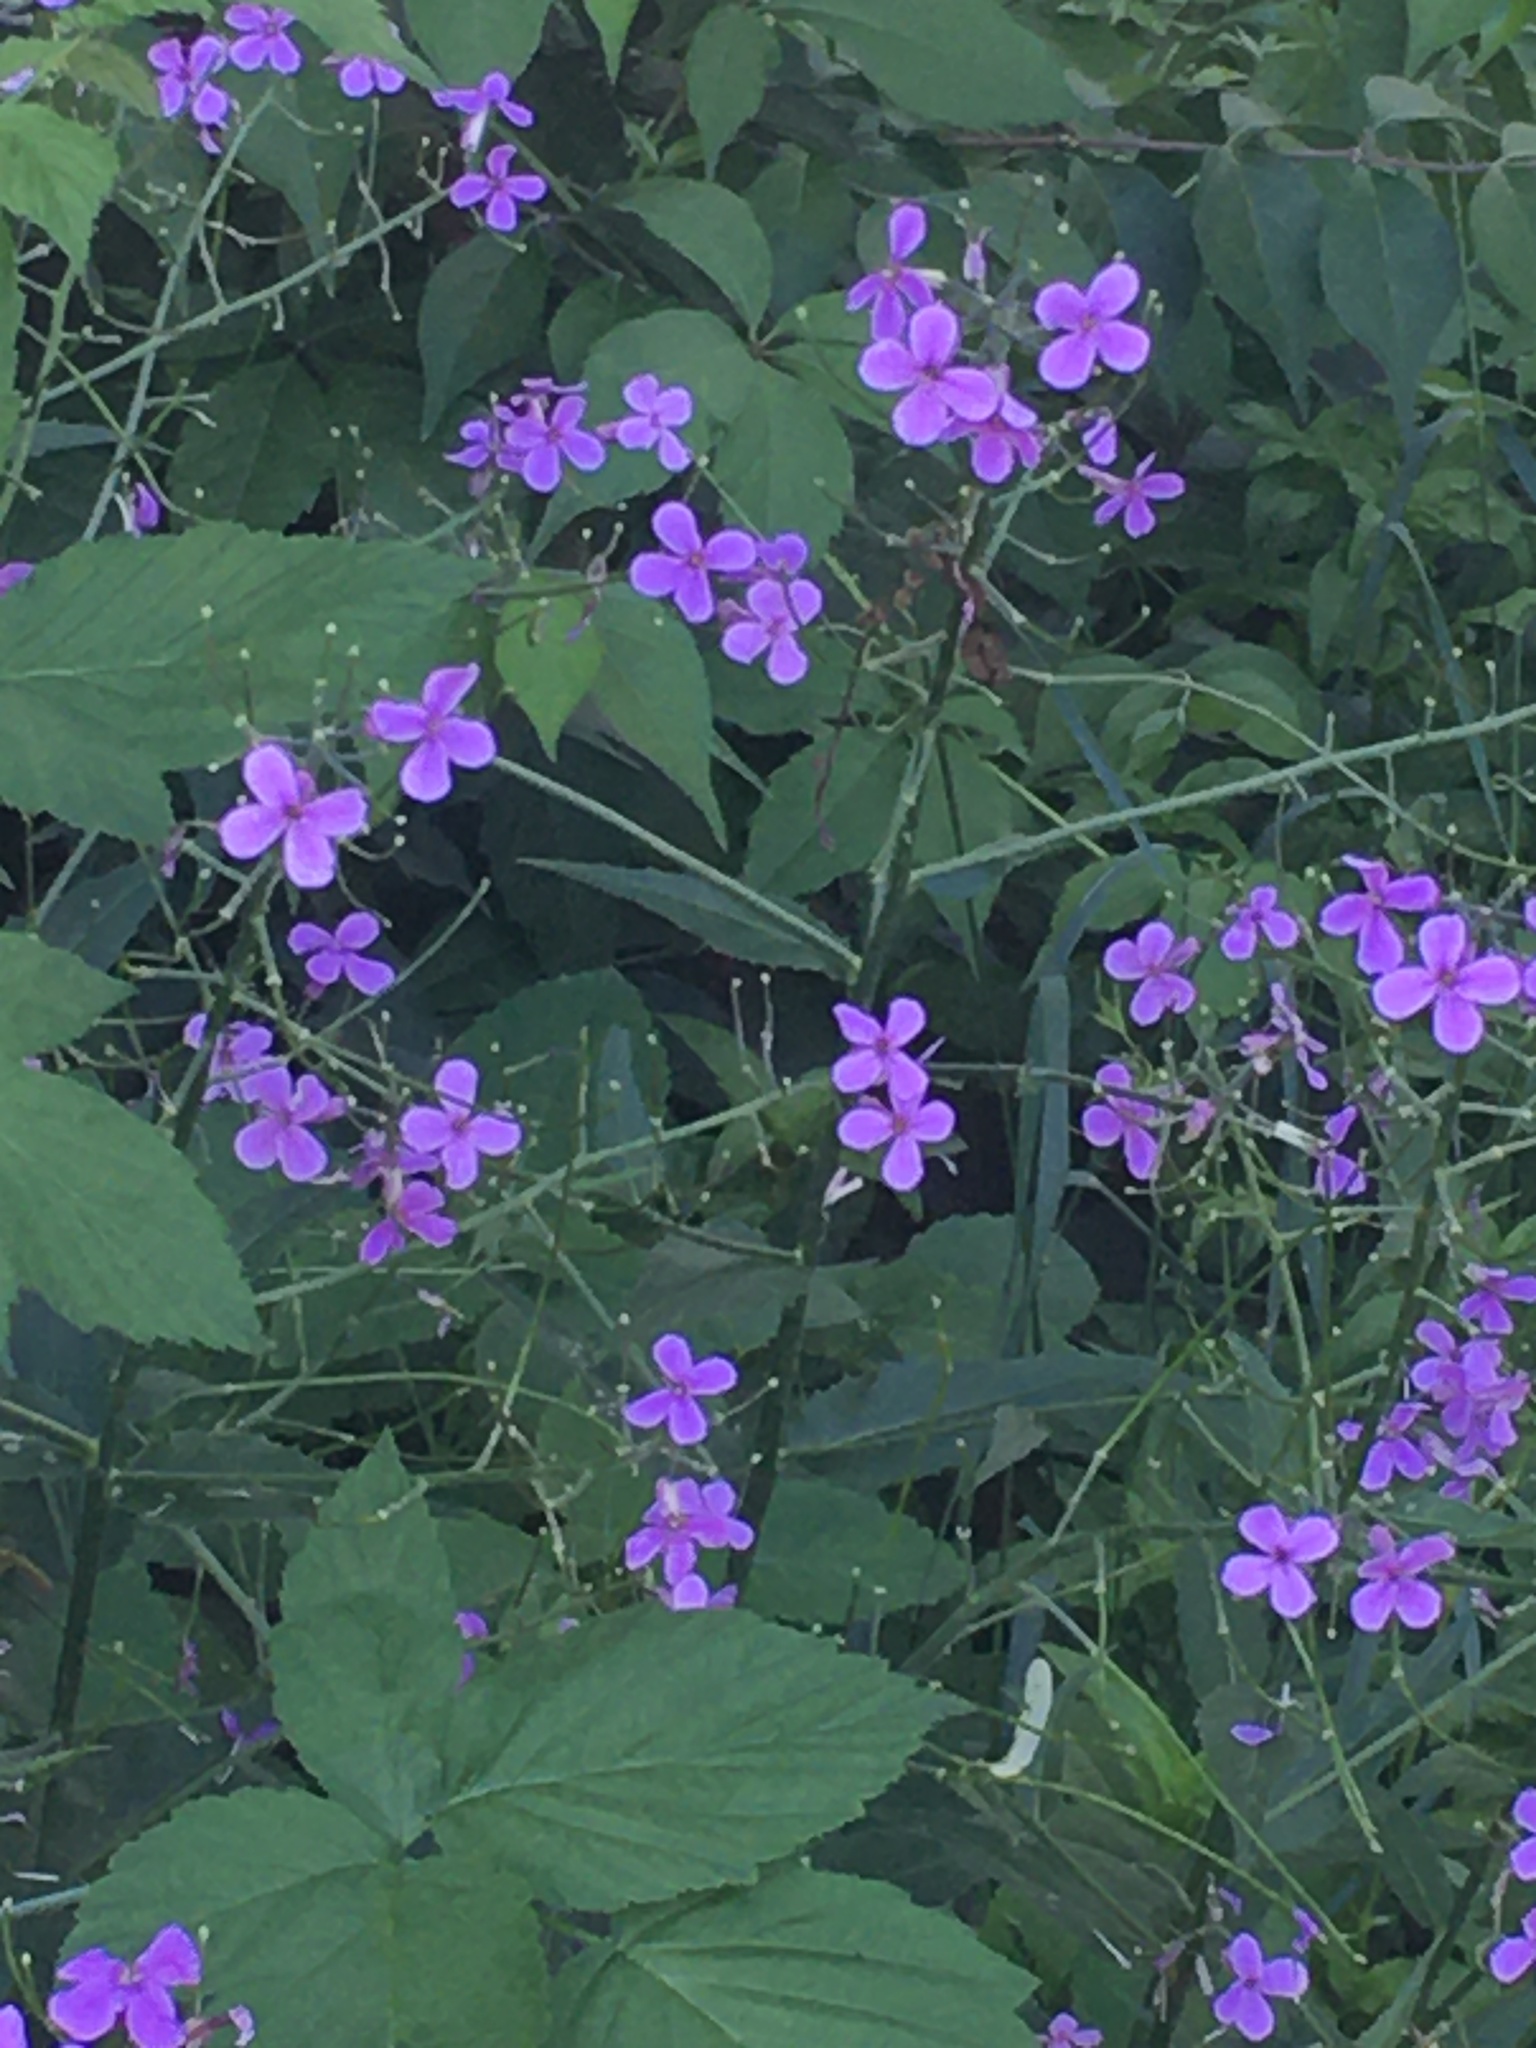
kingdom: Plantae
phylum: Tracheophyta
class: Magnoliopsida
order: Brassicales
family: Brassicaceae
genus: Hesperis
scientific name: Hesperis matronalis
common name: Dame's-violet
